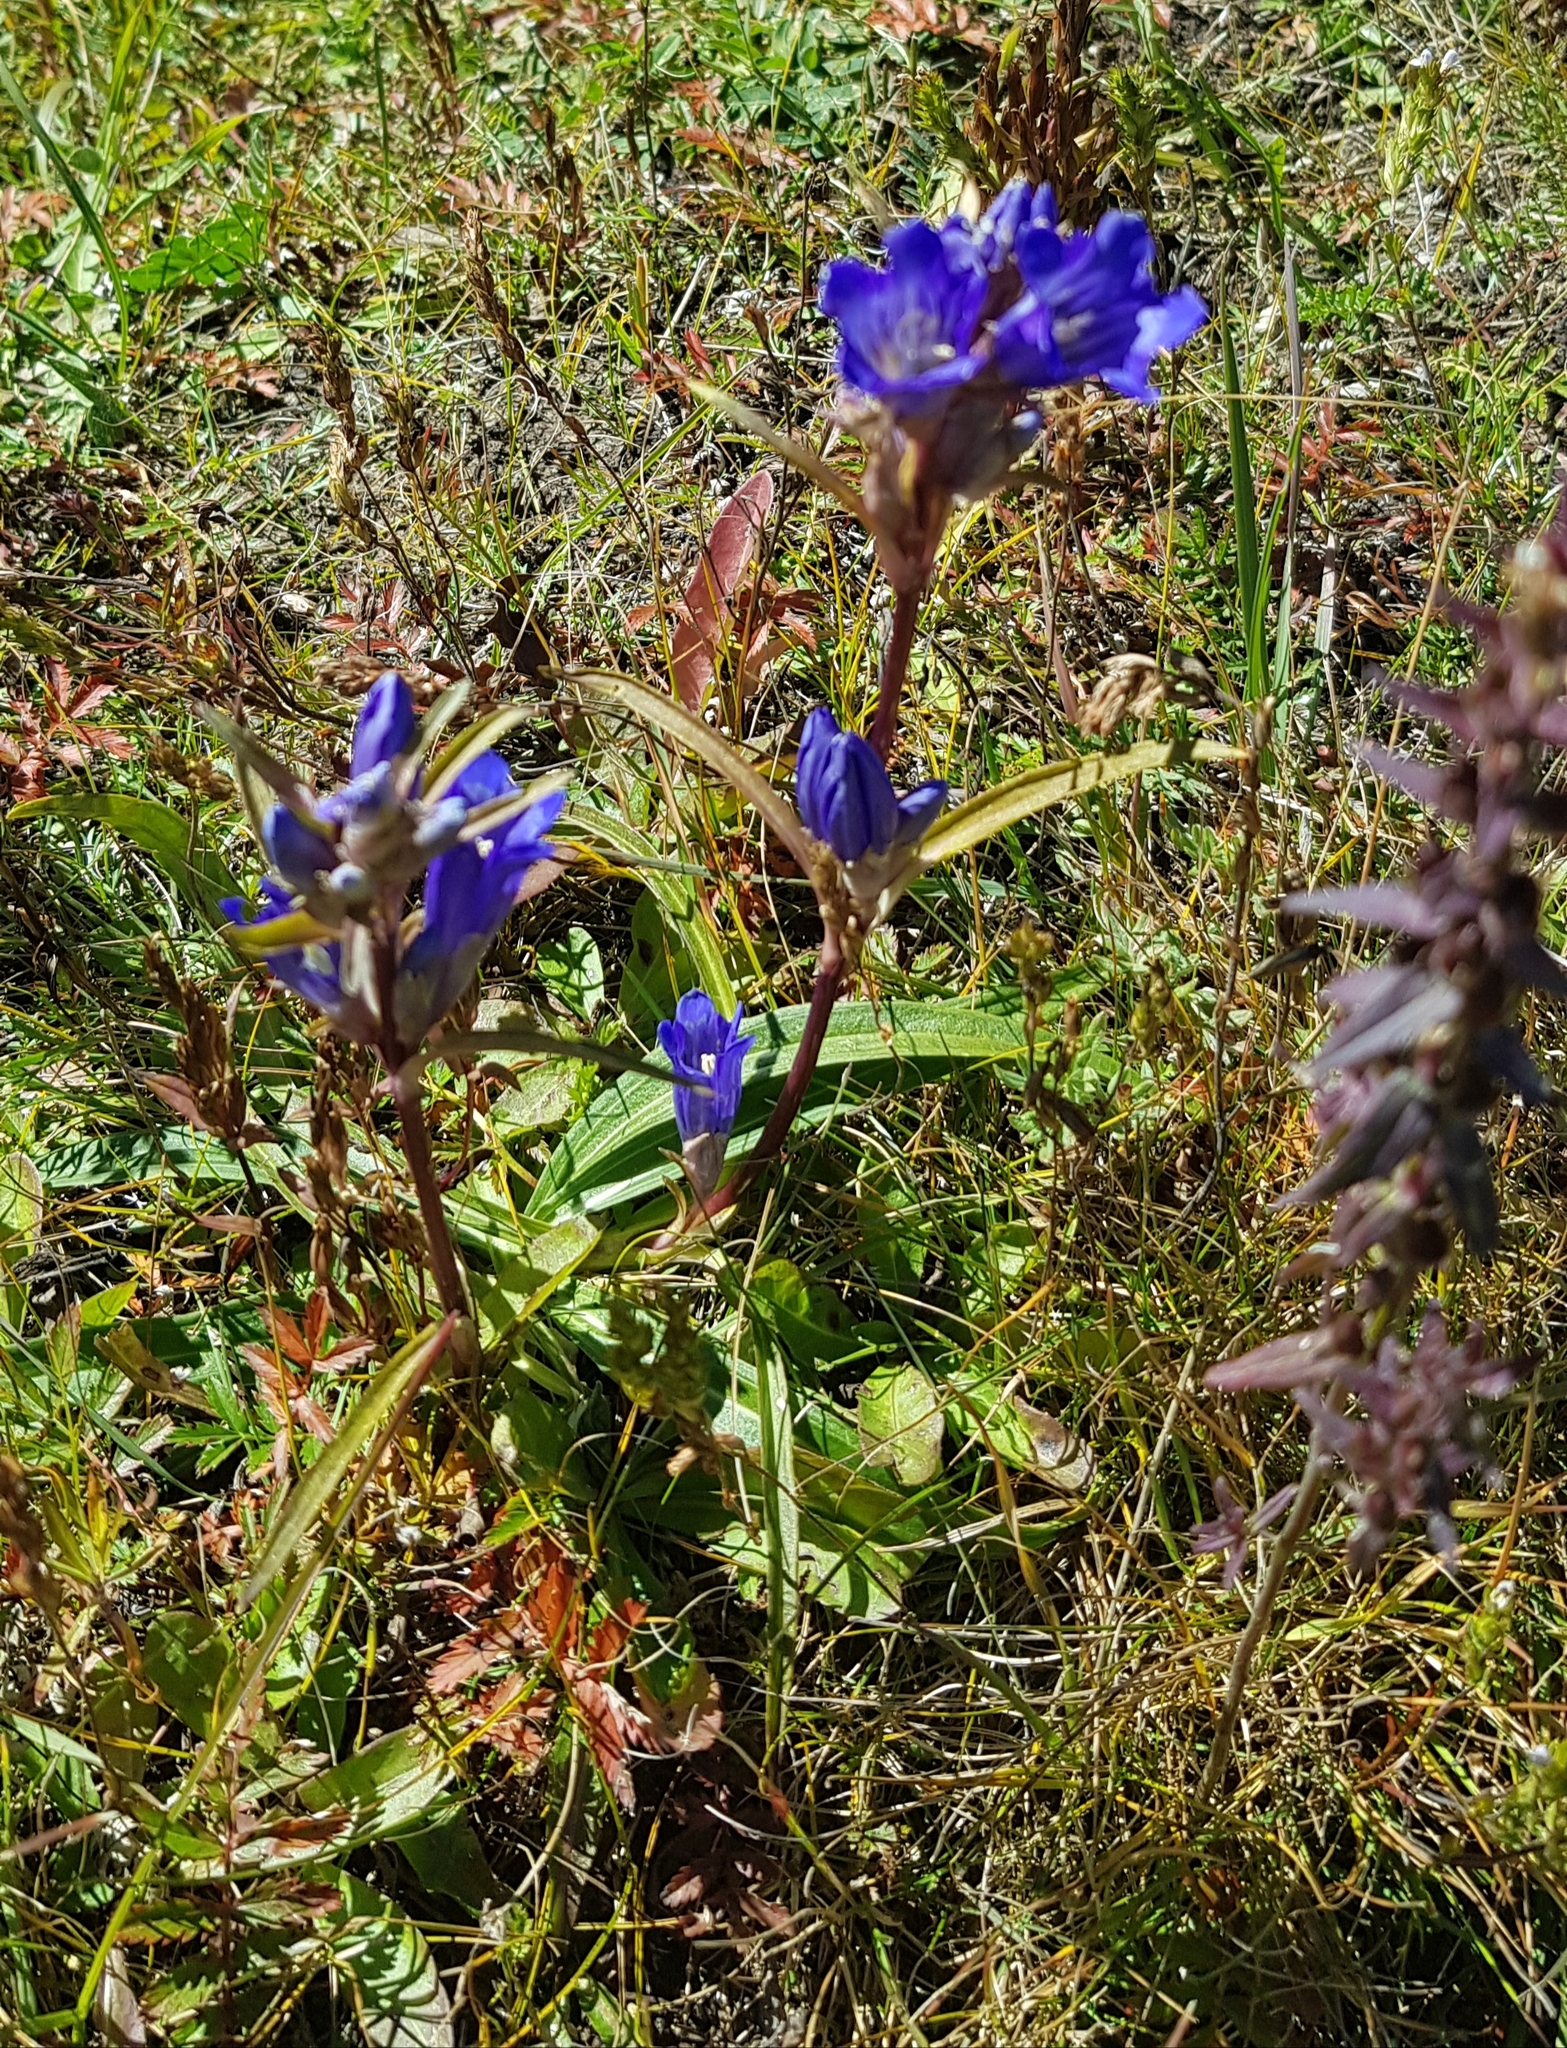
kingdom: Plantae
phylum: Tracheophyta
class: Magnoliopsida
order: Gentianales
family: Gentianaceae
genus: Gentiana
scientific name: Gentiana decumbens
